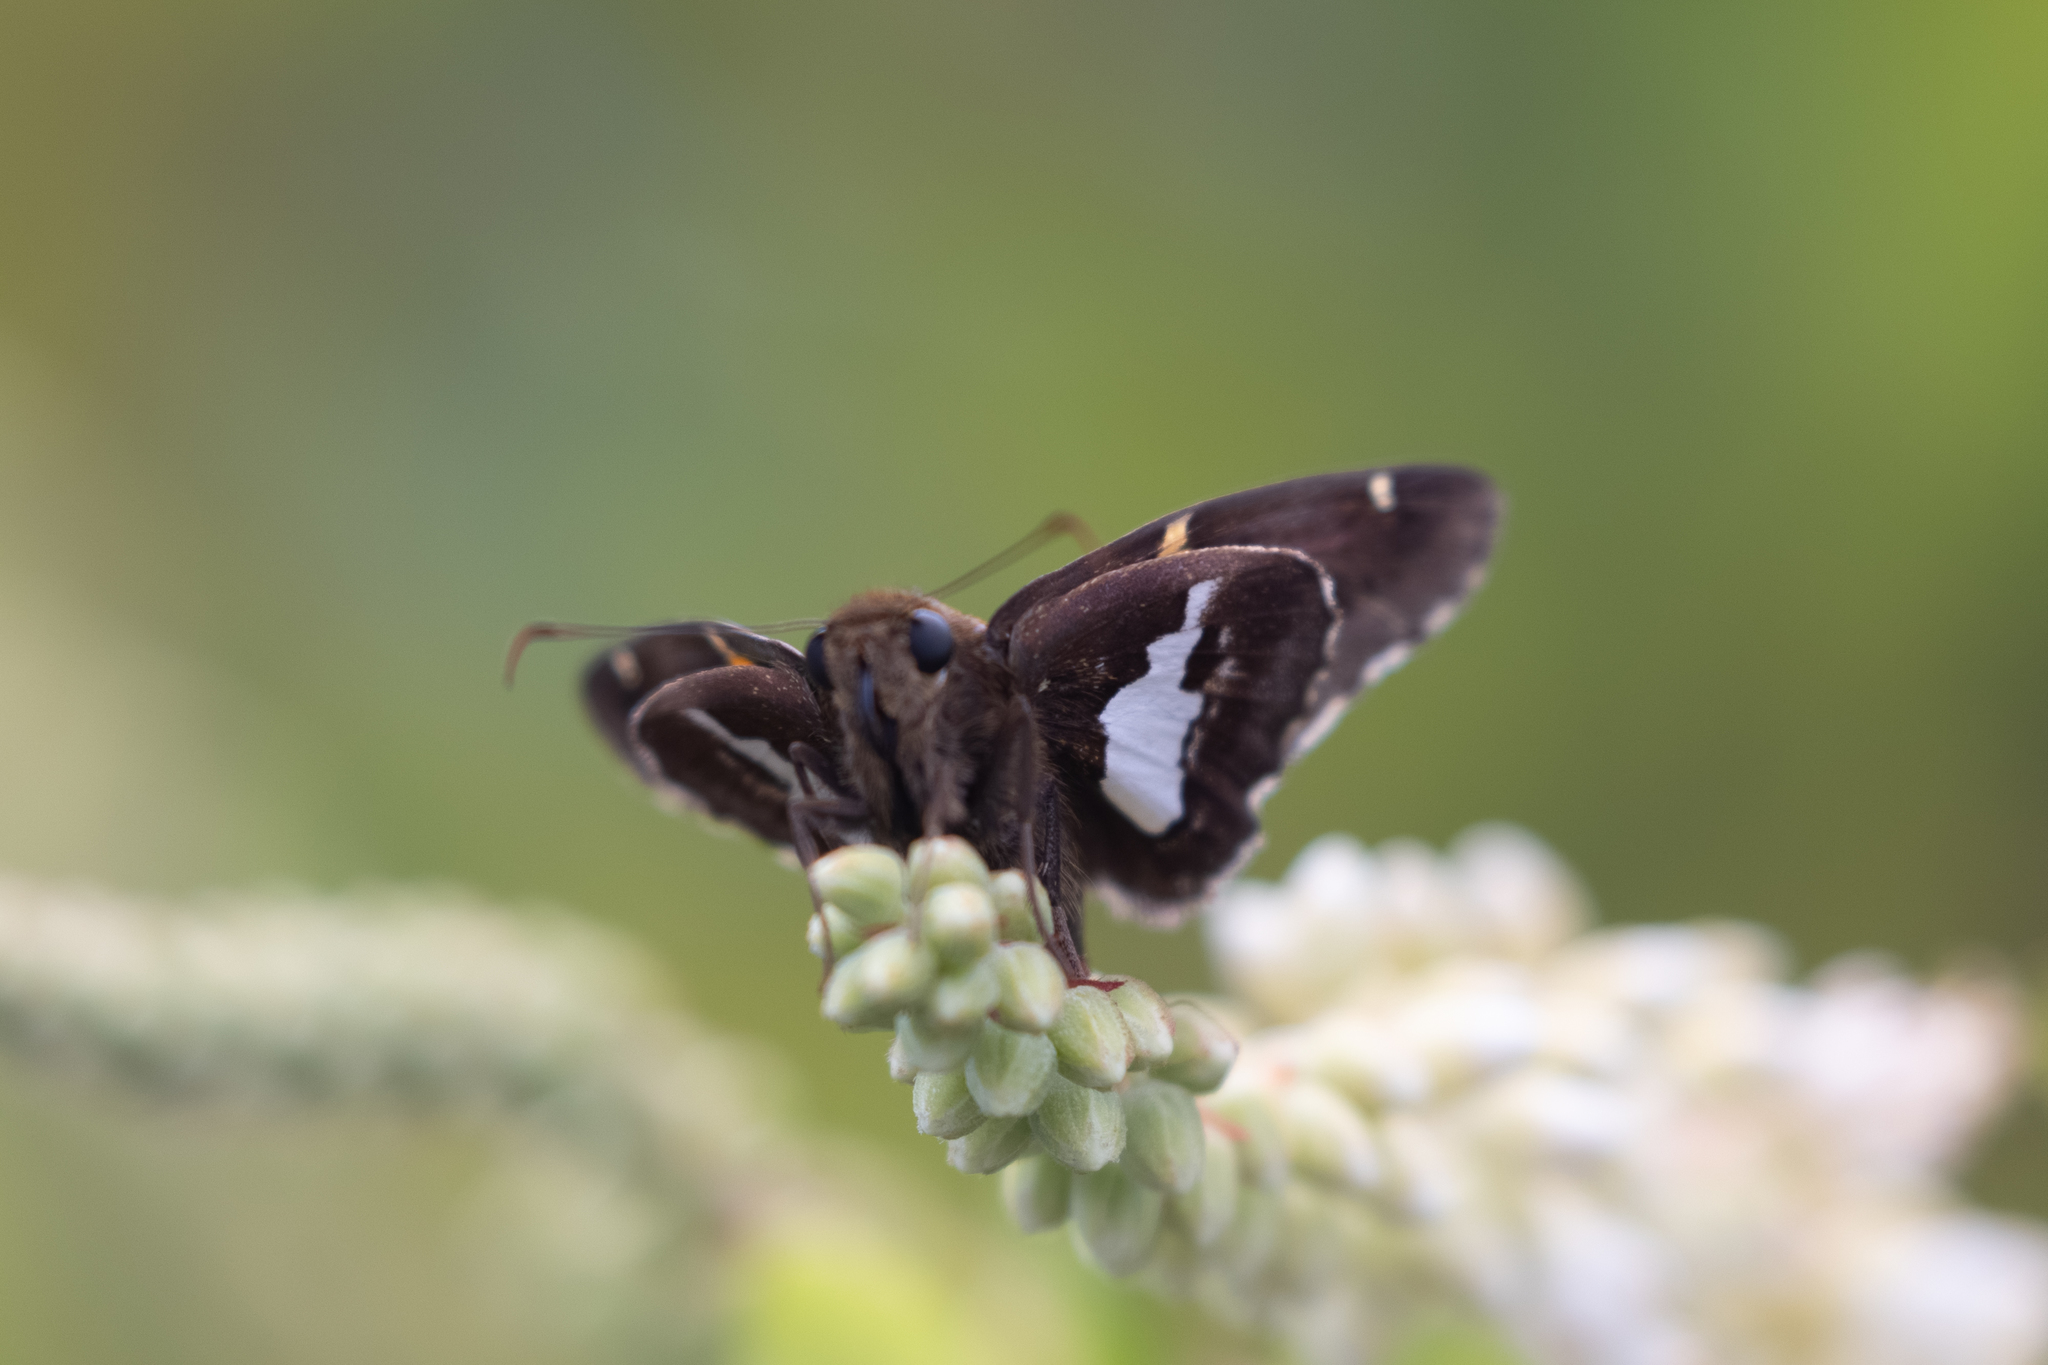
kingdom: Animalia
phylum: Arthropoda
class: Insecta
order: Lepidoptera
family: Hesperiidae
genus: Epargyreus
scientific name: Epargyreus clarus
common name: Silver-spotted skipper
